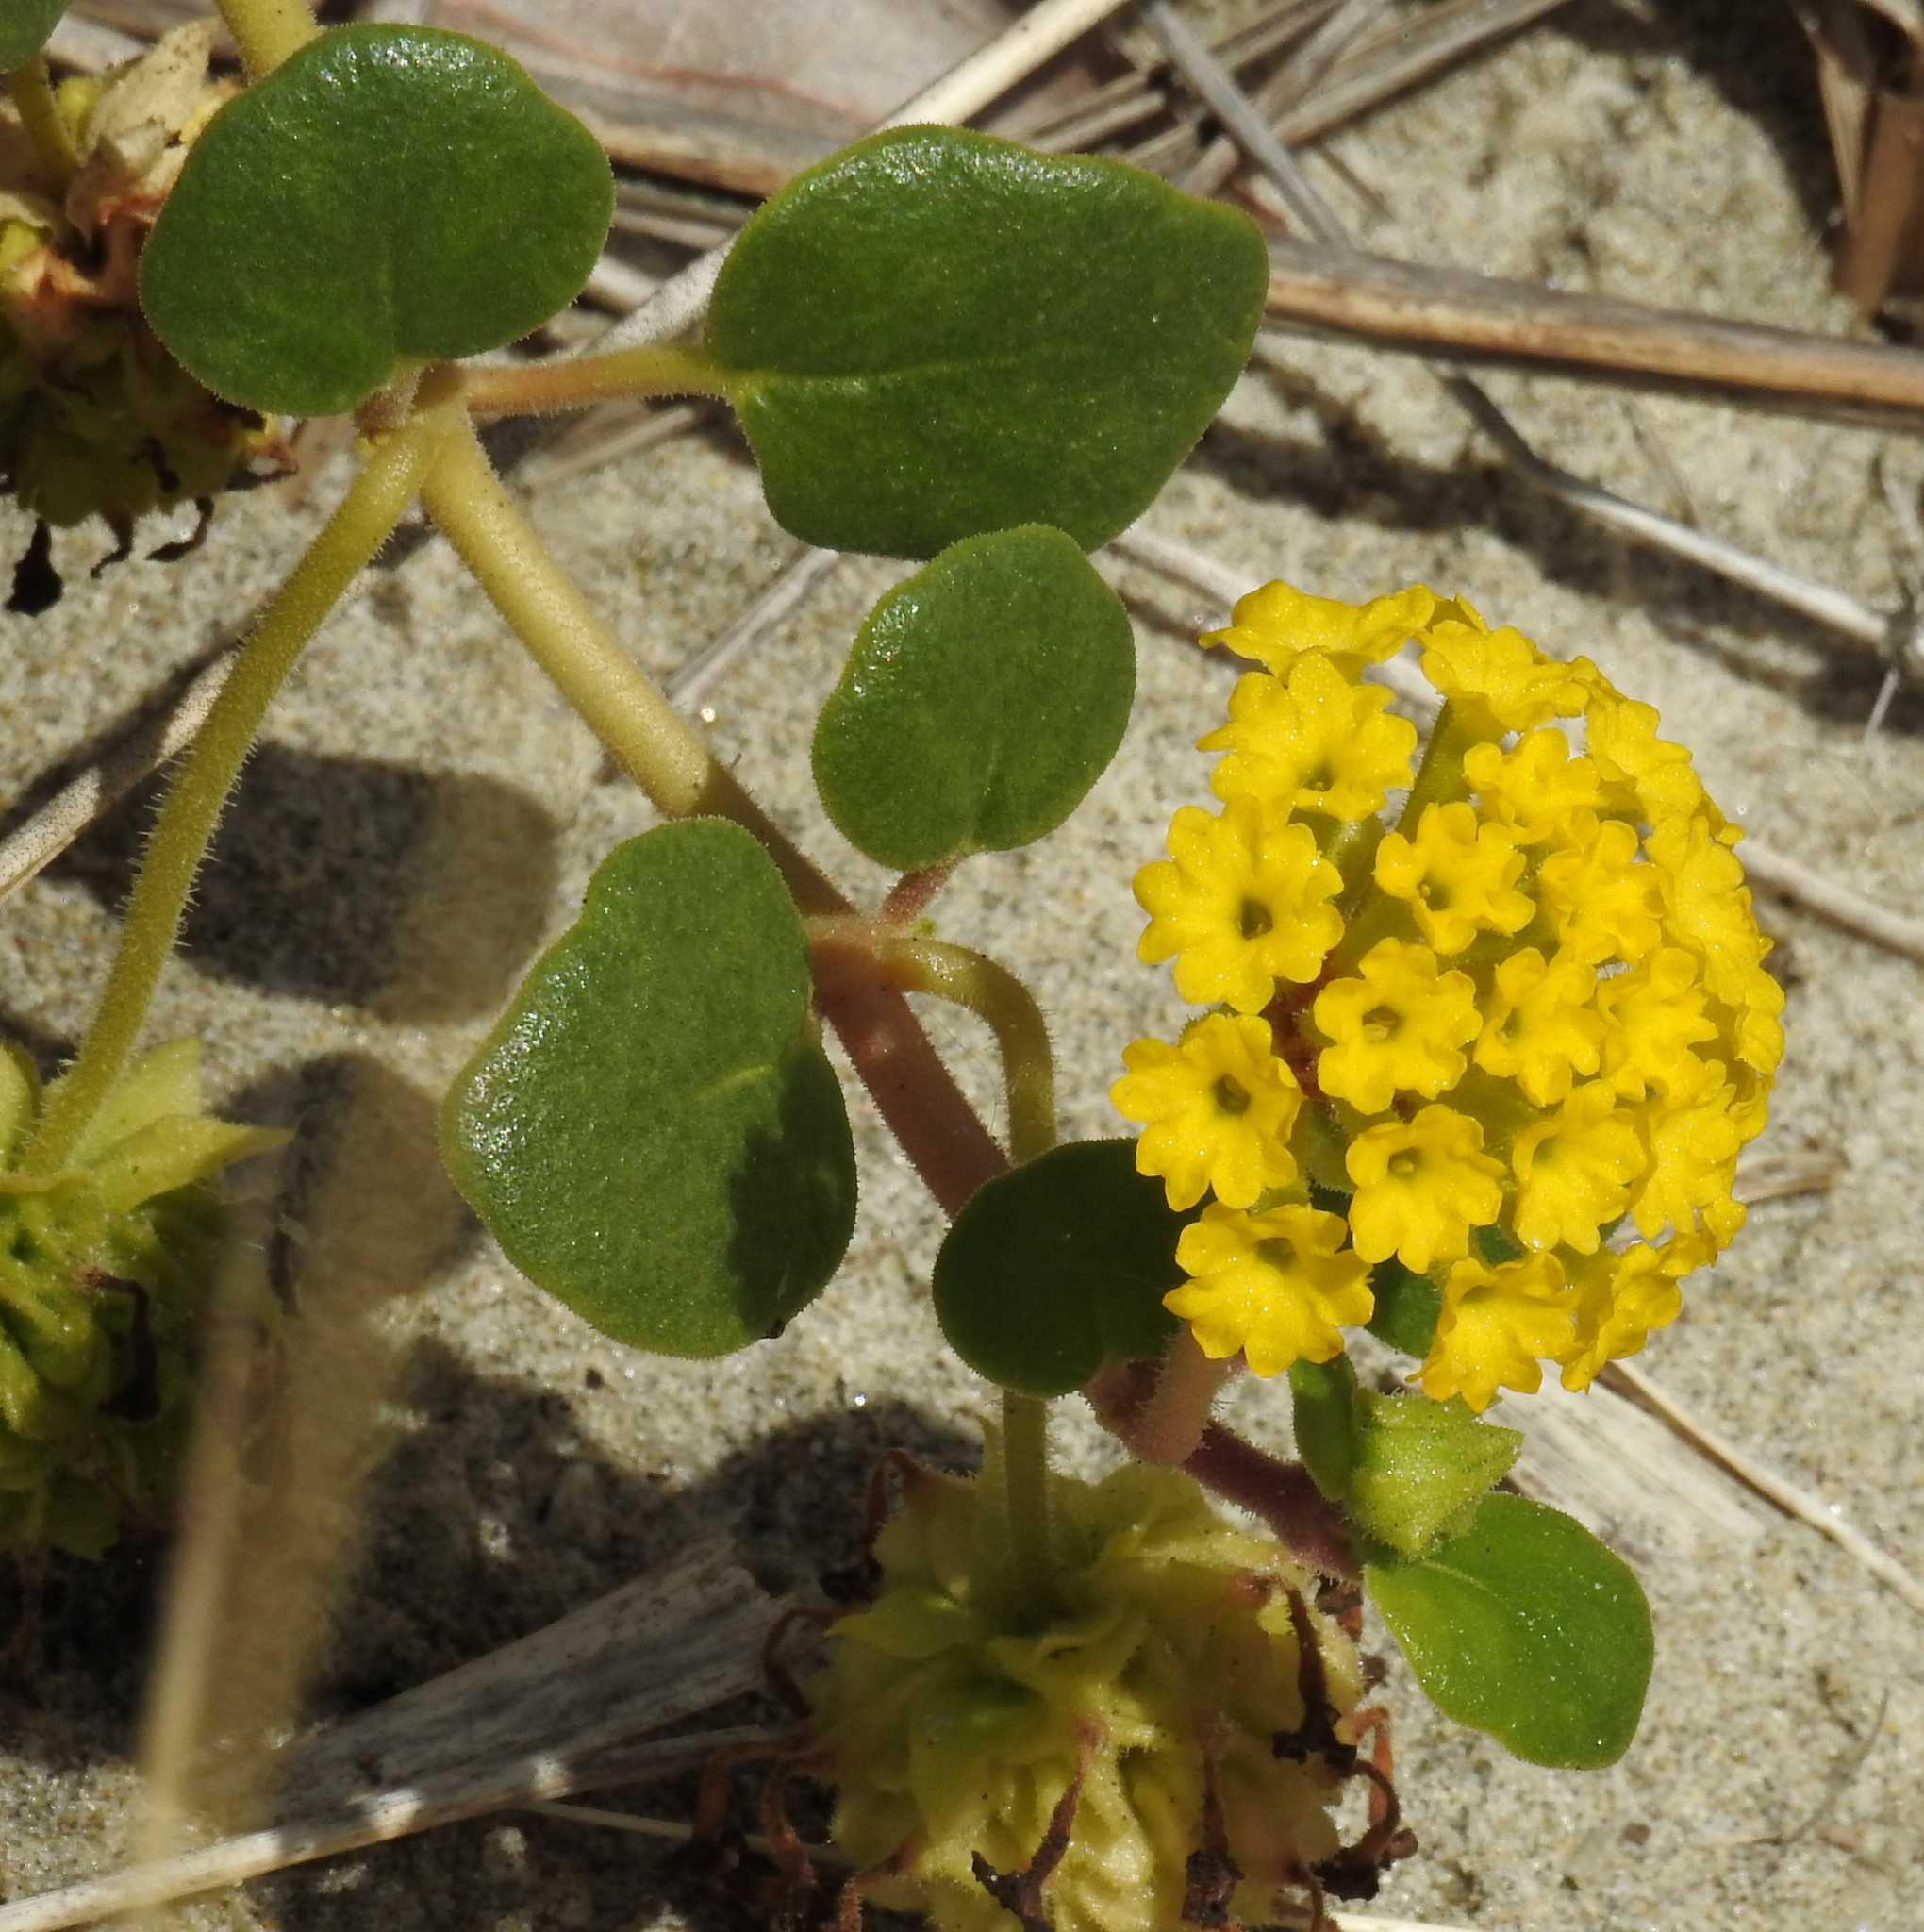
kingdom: Plantae
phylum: Tracheophyta
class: Magnoliopsida
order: Caryophyllales
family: Nyctaginaceae
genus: Abronia
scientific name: Abronia latifolia
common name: Yellow sand-verbena
